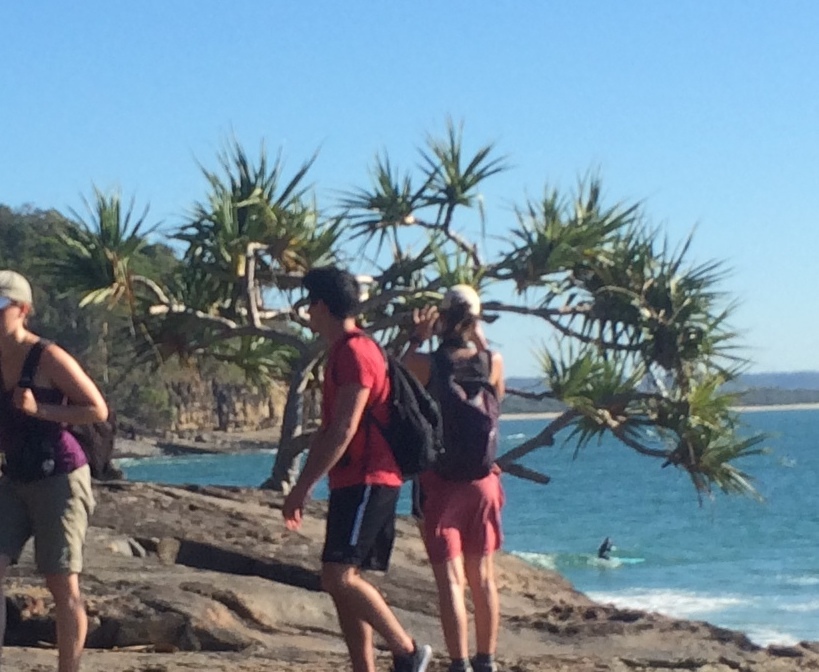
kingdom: Plantae
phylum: Tracheophyta
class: Liliopsida
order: Pandanales
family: Pandanaceae
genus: Pandanus
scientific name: Pandanus tectorius
